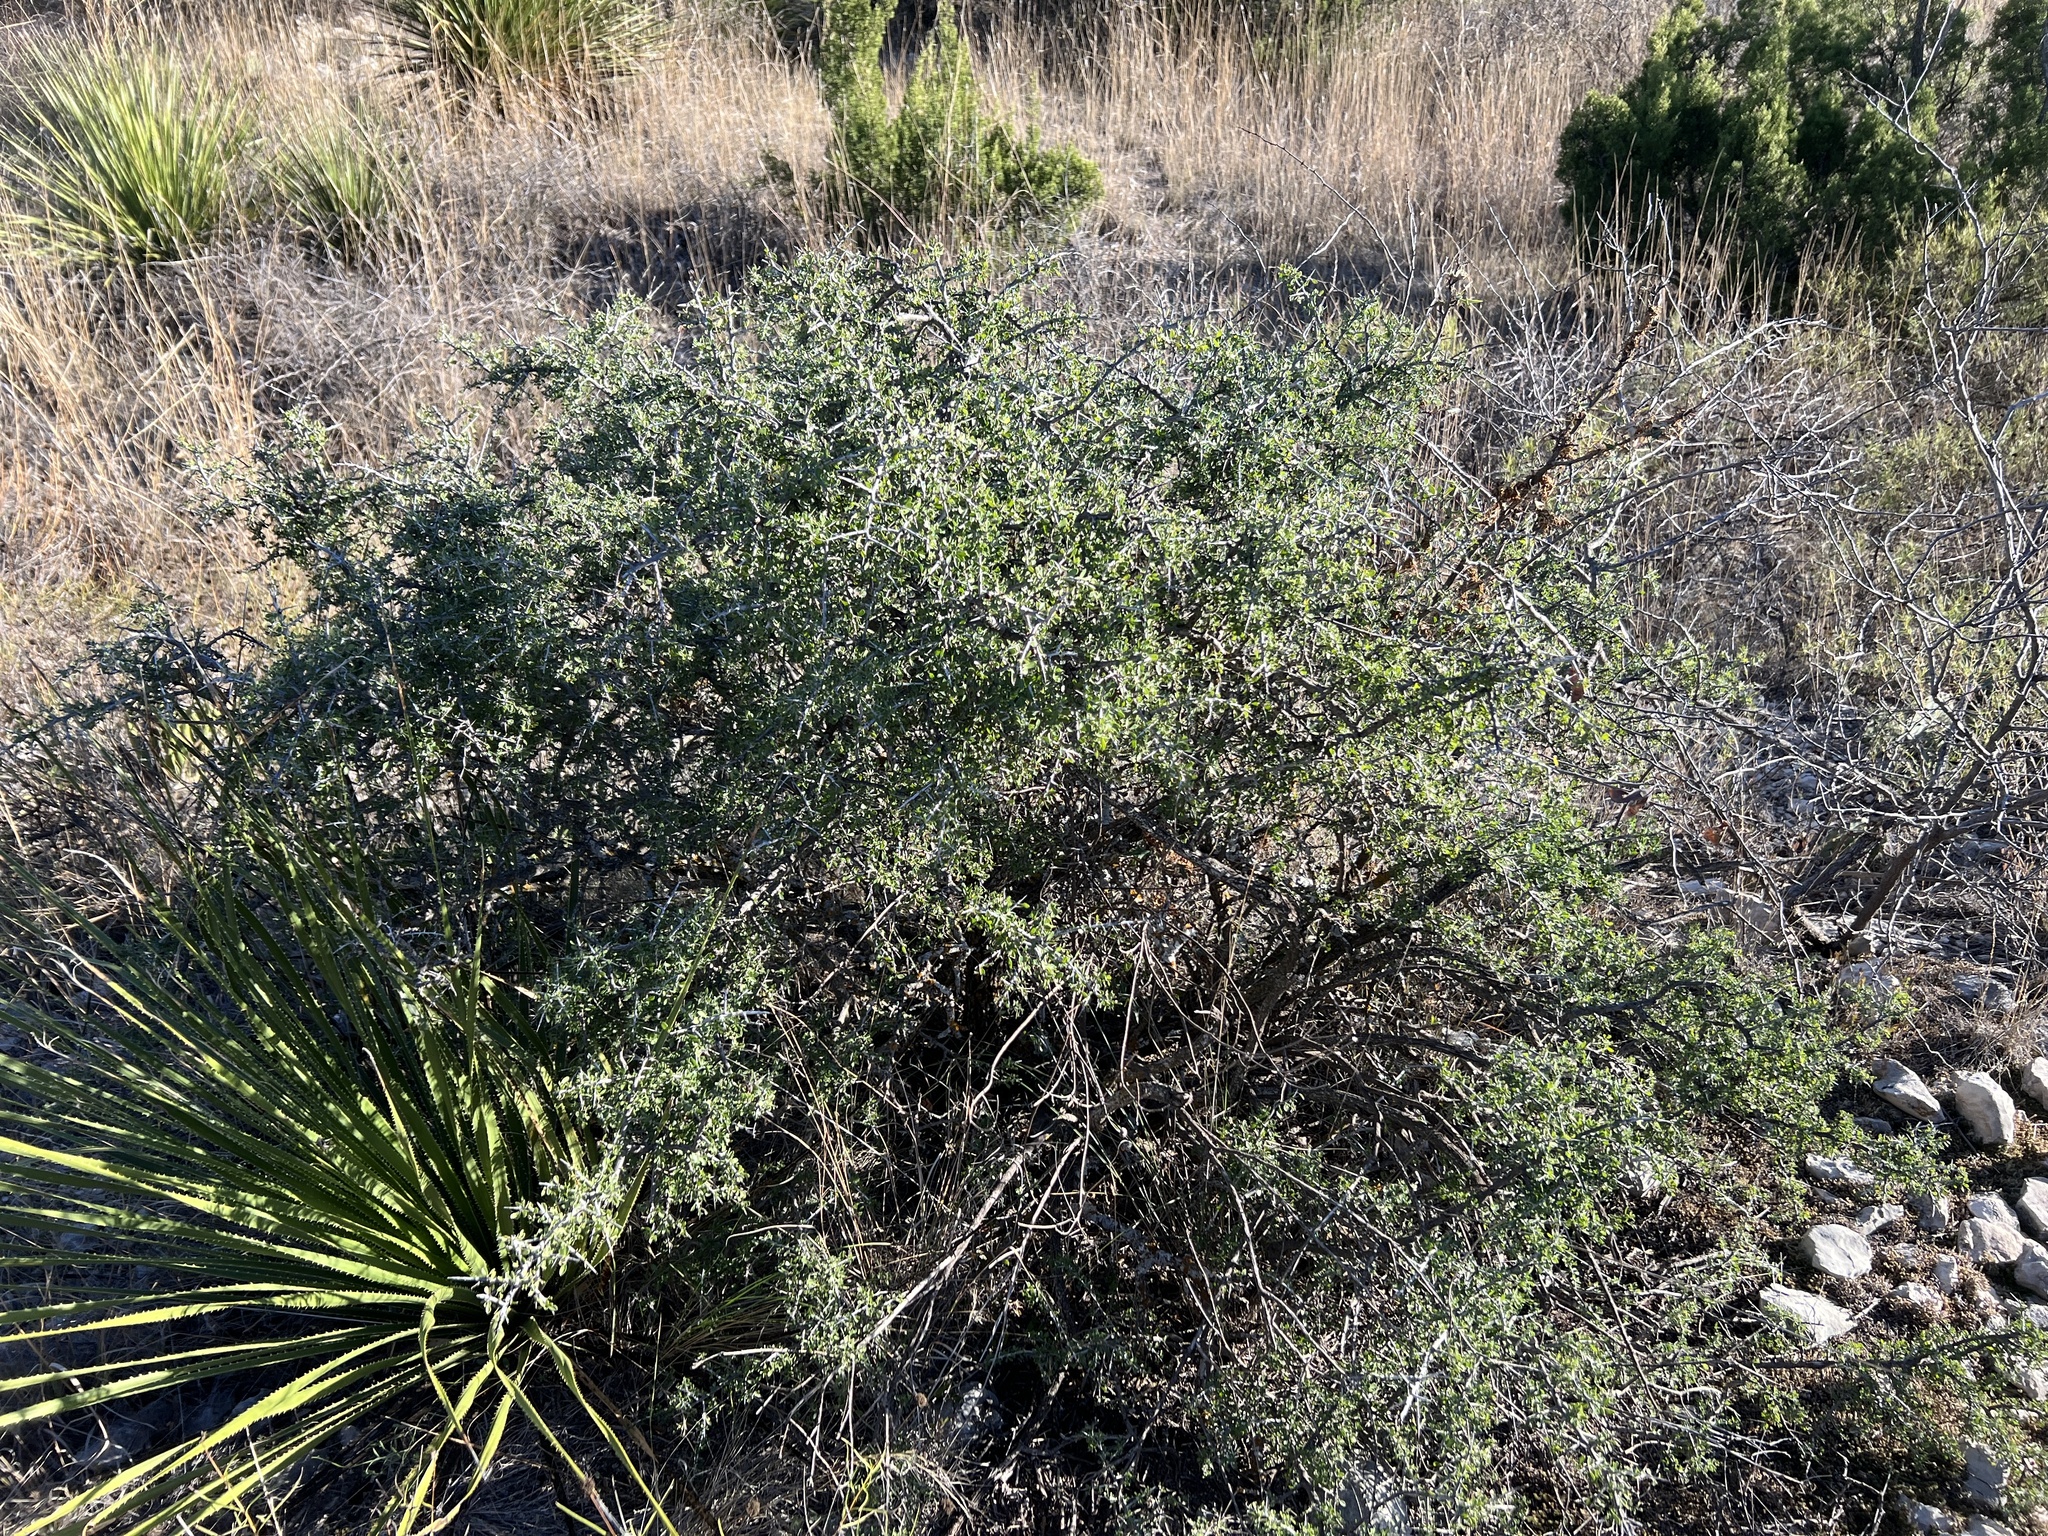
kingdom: Plantae
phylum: Tracheophyta
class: Magnoliopsida
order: Rosales
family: Rhamnaceae
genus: Condalia
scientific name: Condalia viridis
